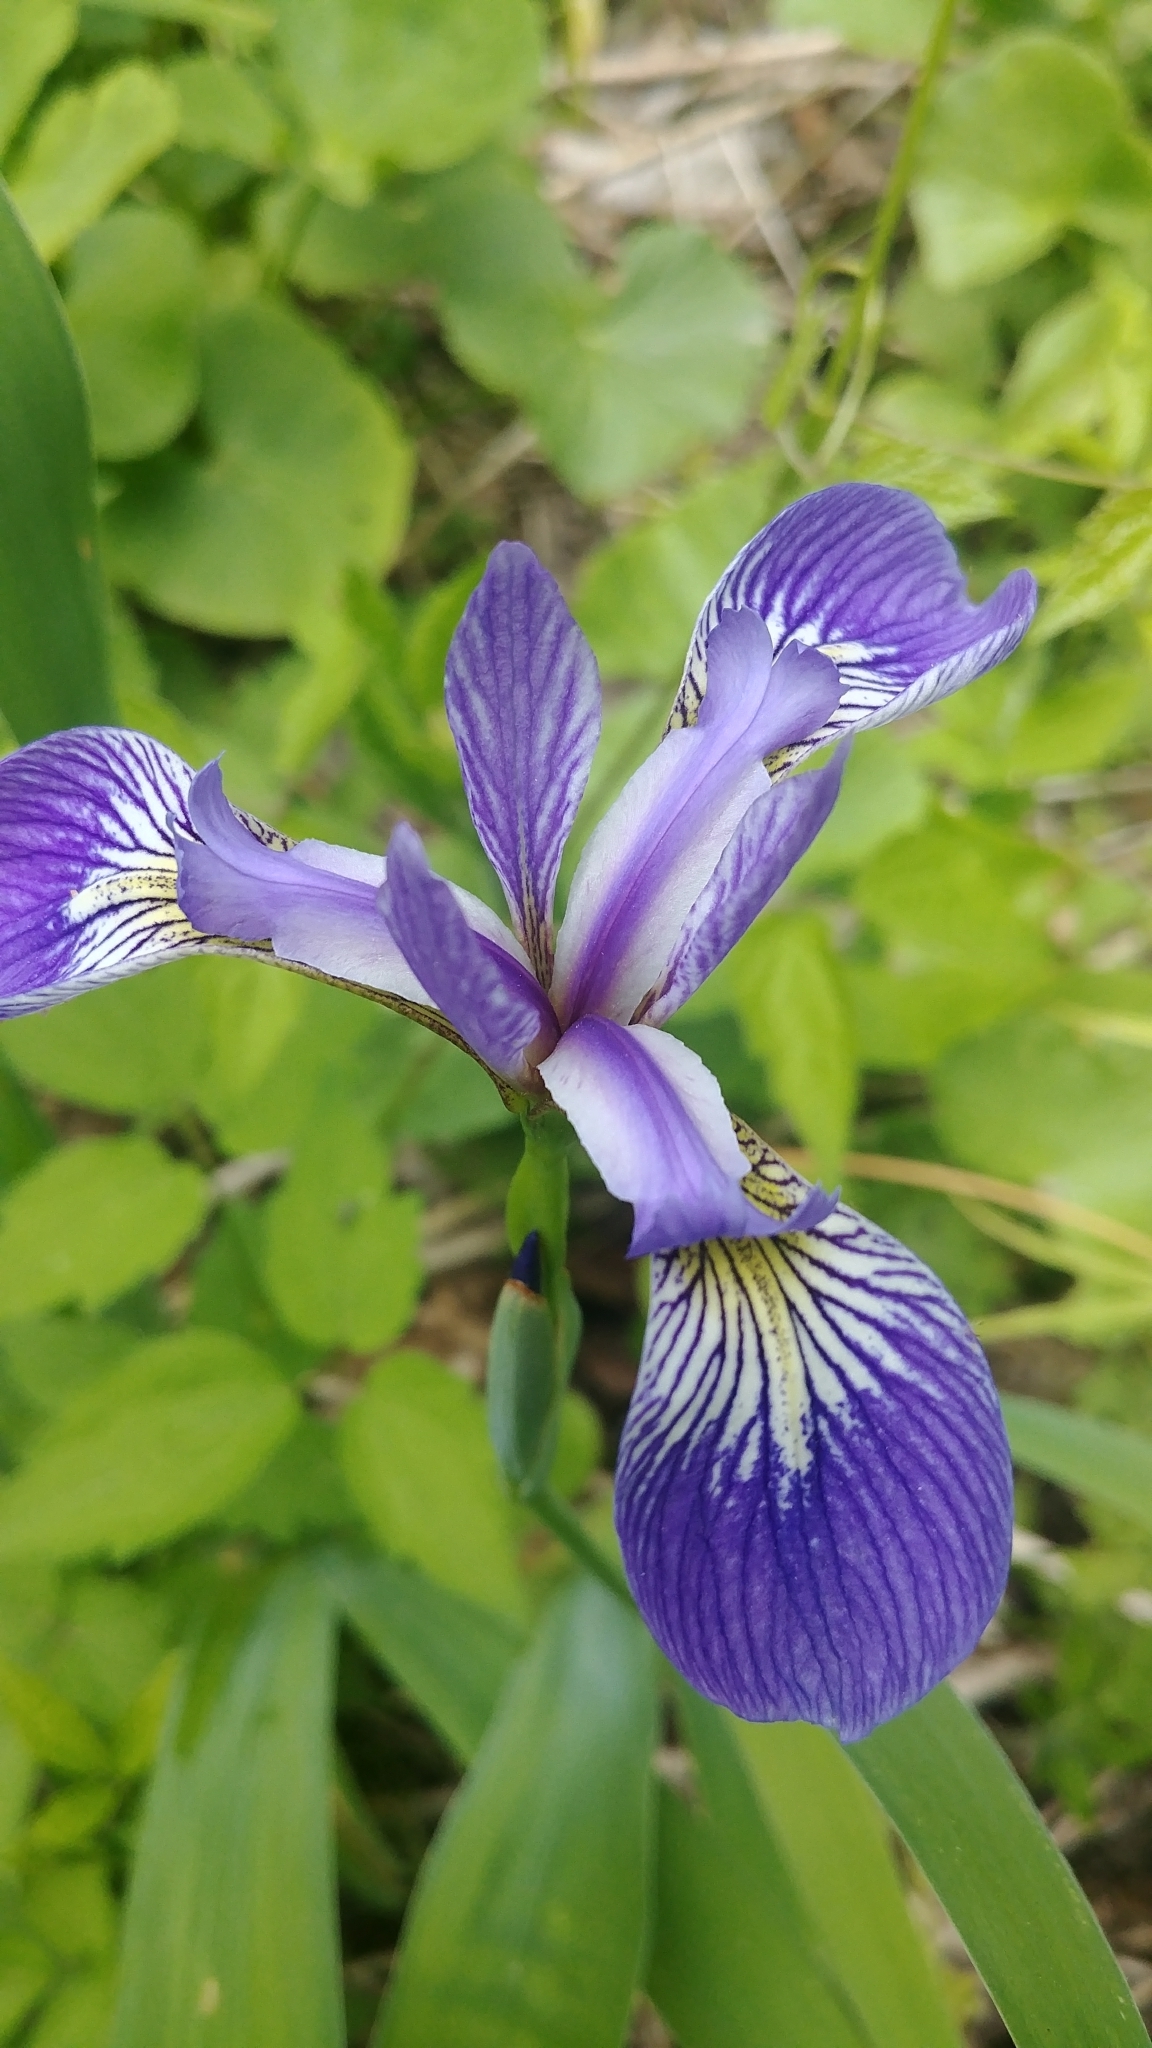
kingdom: Plantae
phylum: Tracheophyta
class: Liliopsida
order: Asparagales
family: Iridaceae
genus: Iris
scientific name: Iris versicolor
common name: Purple iris
